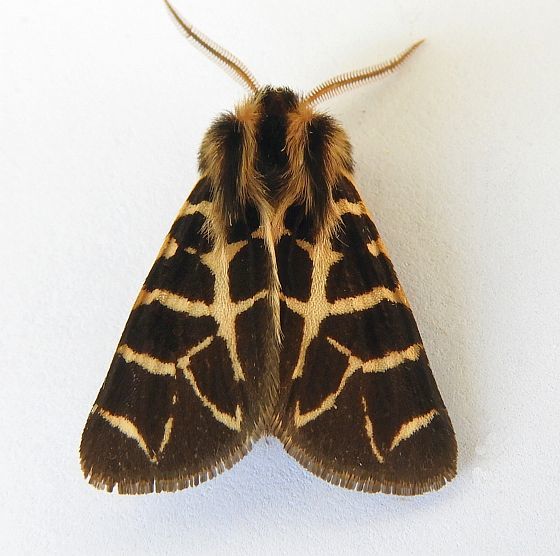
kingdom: Animalia
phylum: Arthropoda
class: Insecta
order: Lepidoptera
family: Erebidae
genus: Apantesis
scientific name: Apantesis
